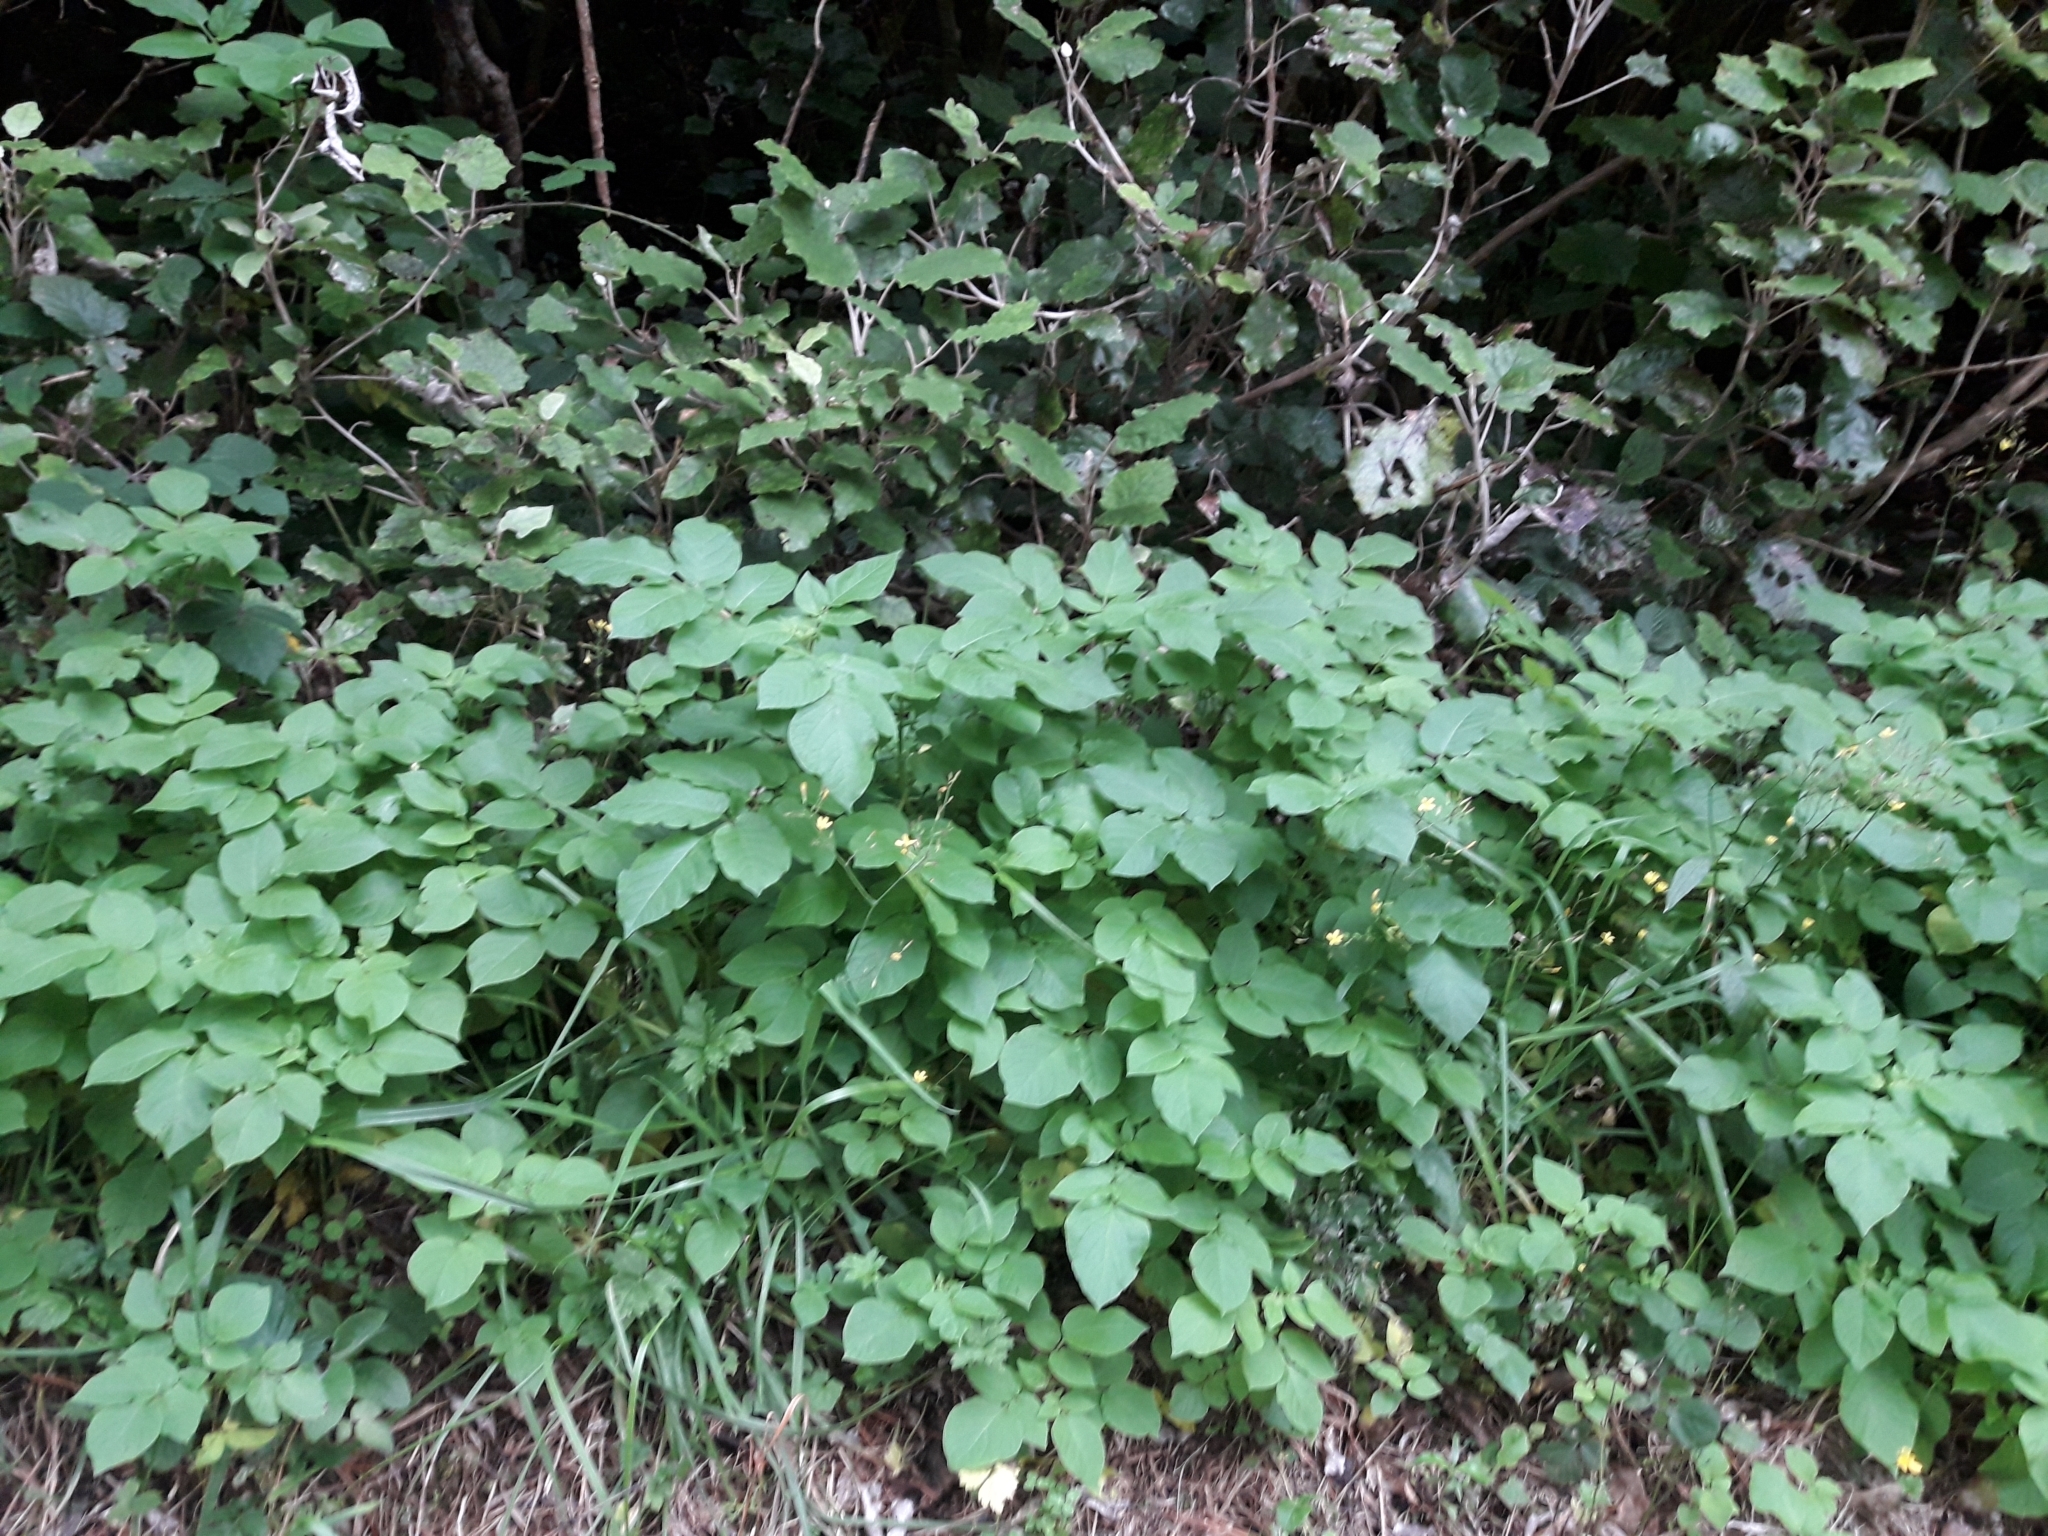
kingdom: Plantae
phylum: Tracheophyta
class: Magnoliopsida
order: Solanales
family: Solanaceae
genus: Solanum
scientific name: Solanum tuberosum
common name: Potato
